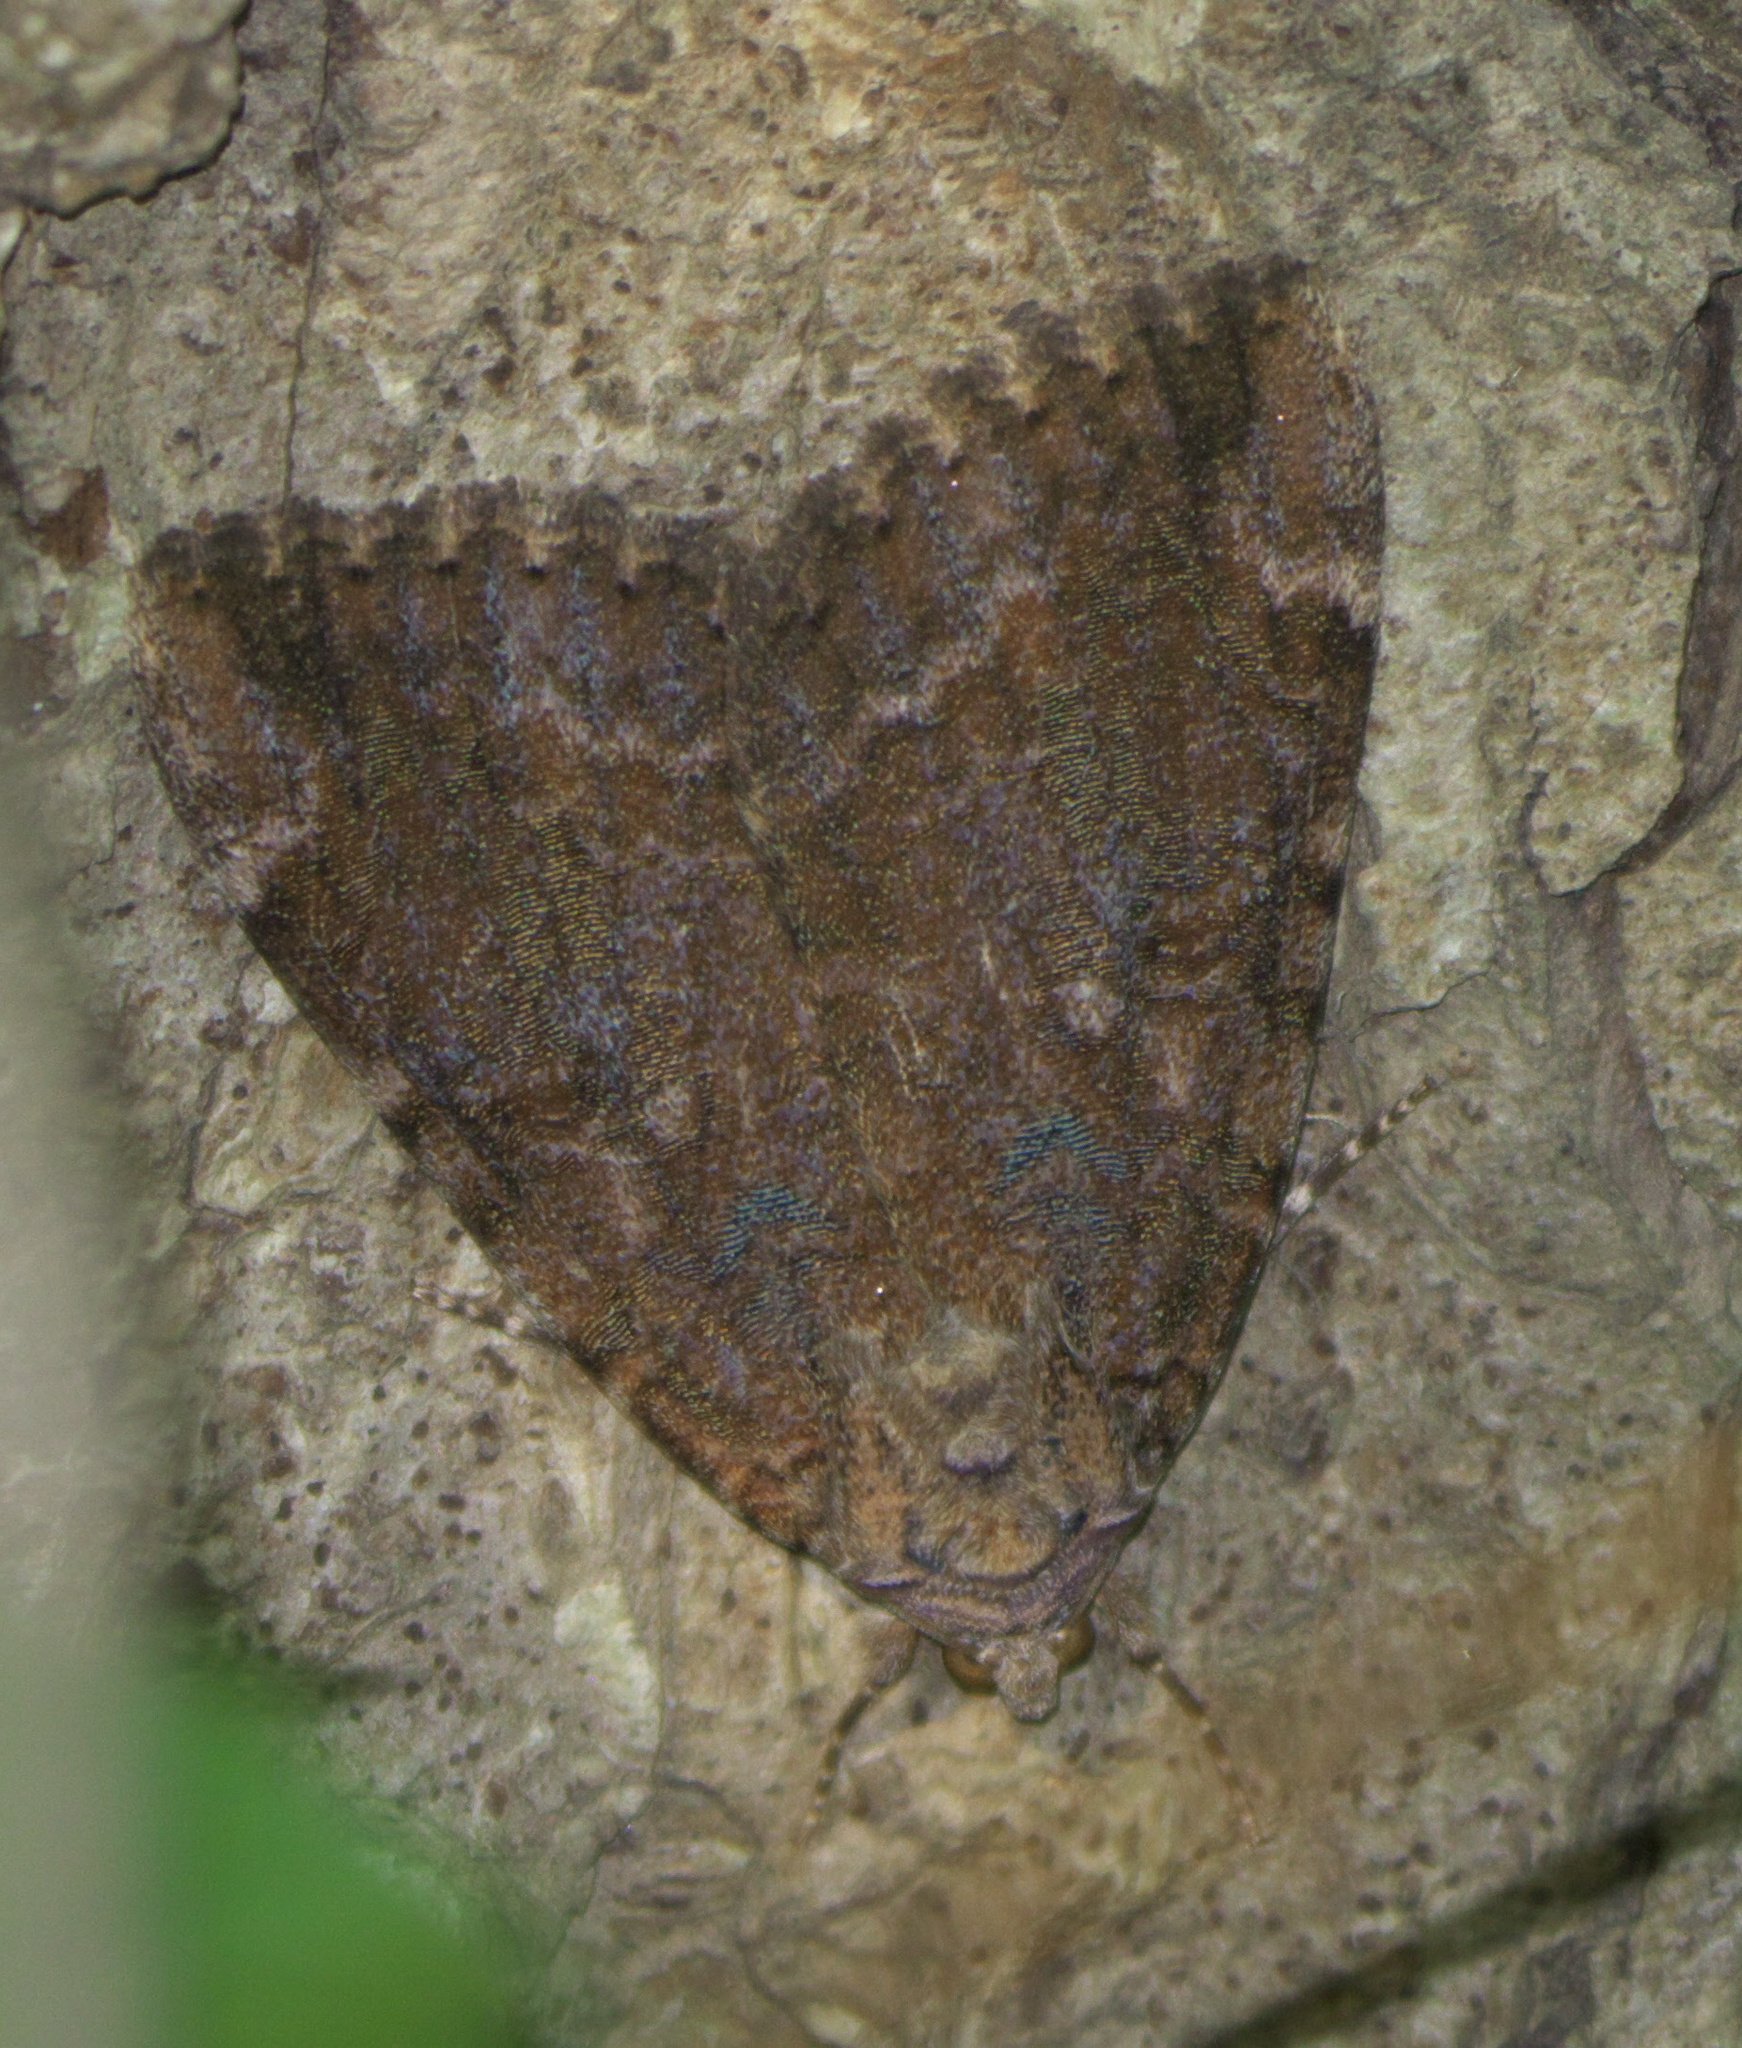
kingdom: Animalia
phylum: Arthropoda
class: Insecta
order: Lepidoptera
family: Erebidae
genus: Catocala
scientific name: Catocala innubens
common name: Betrothed underwing
